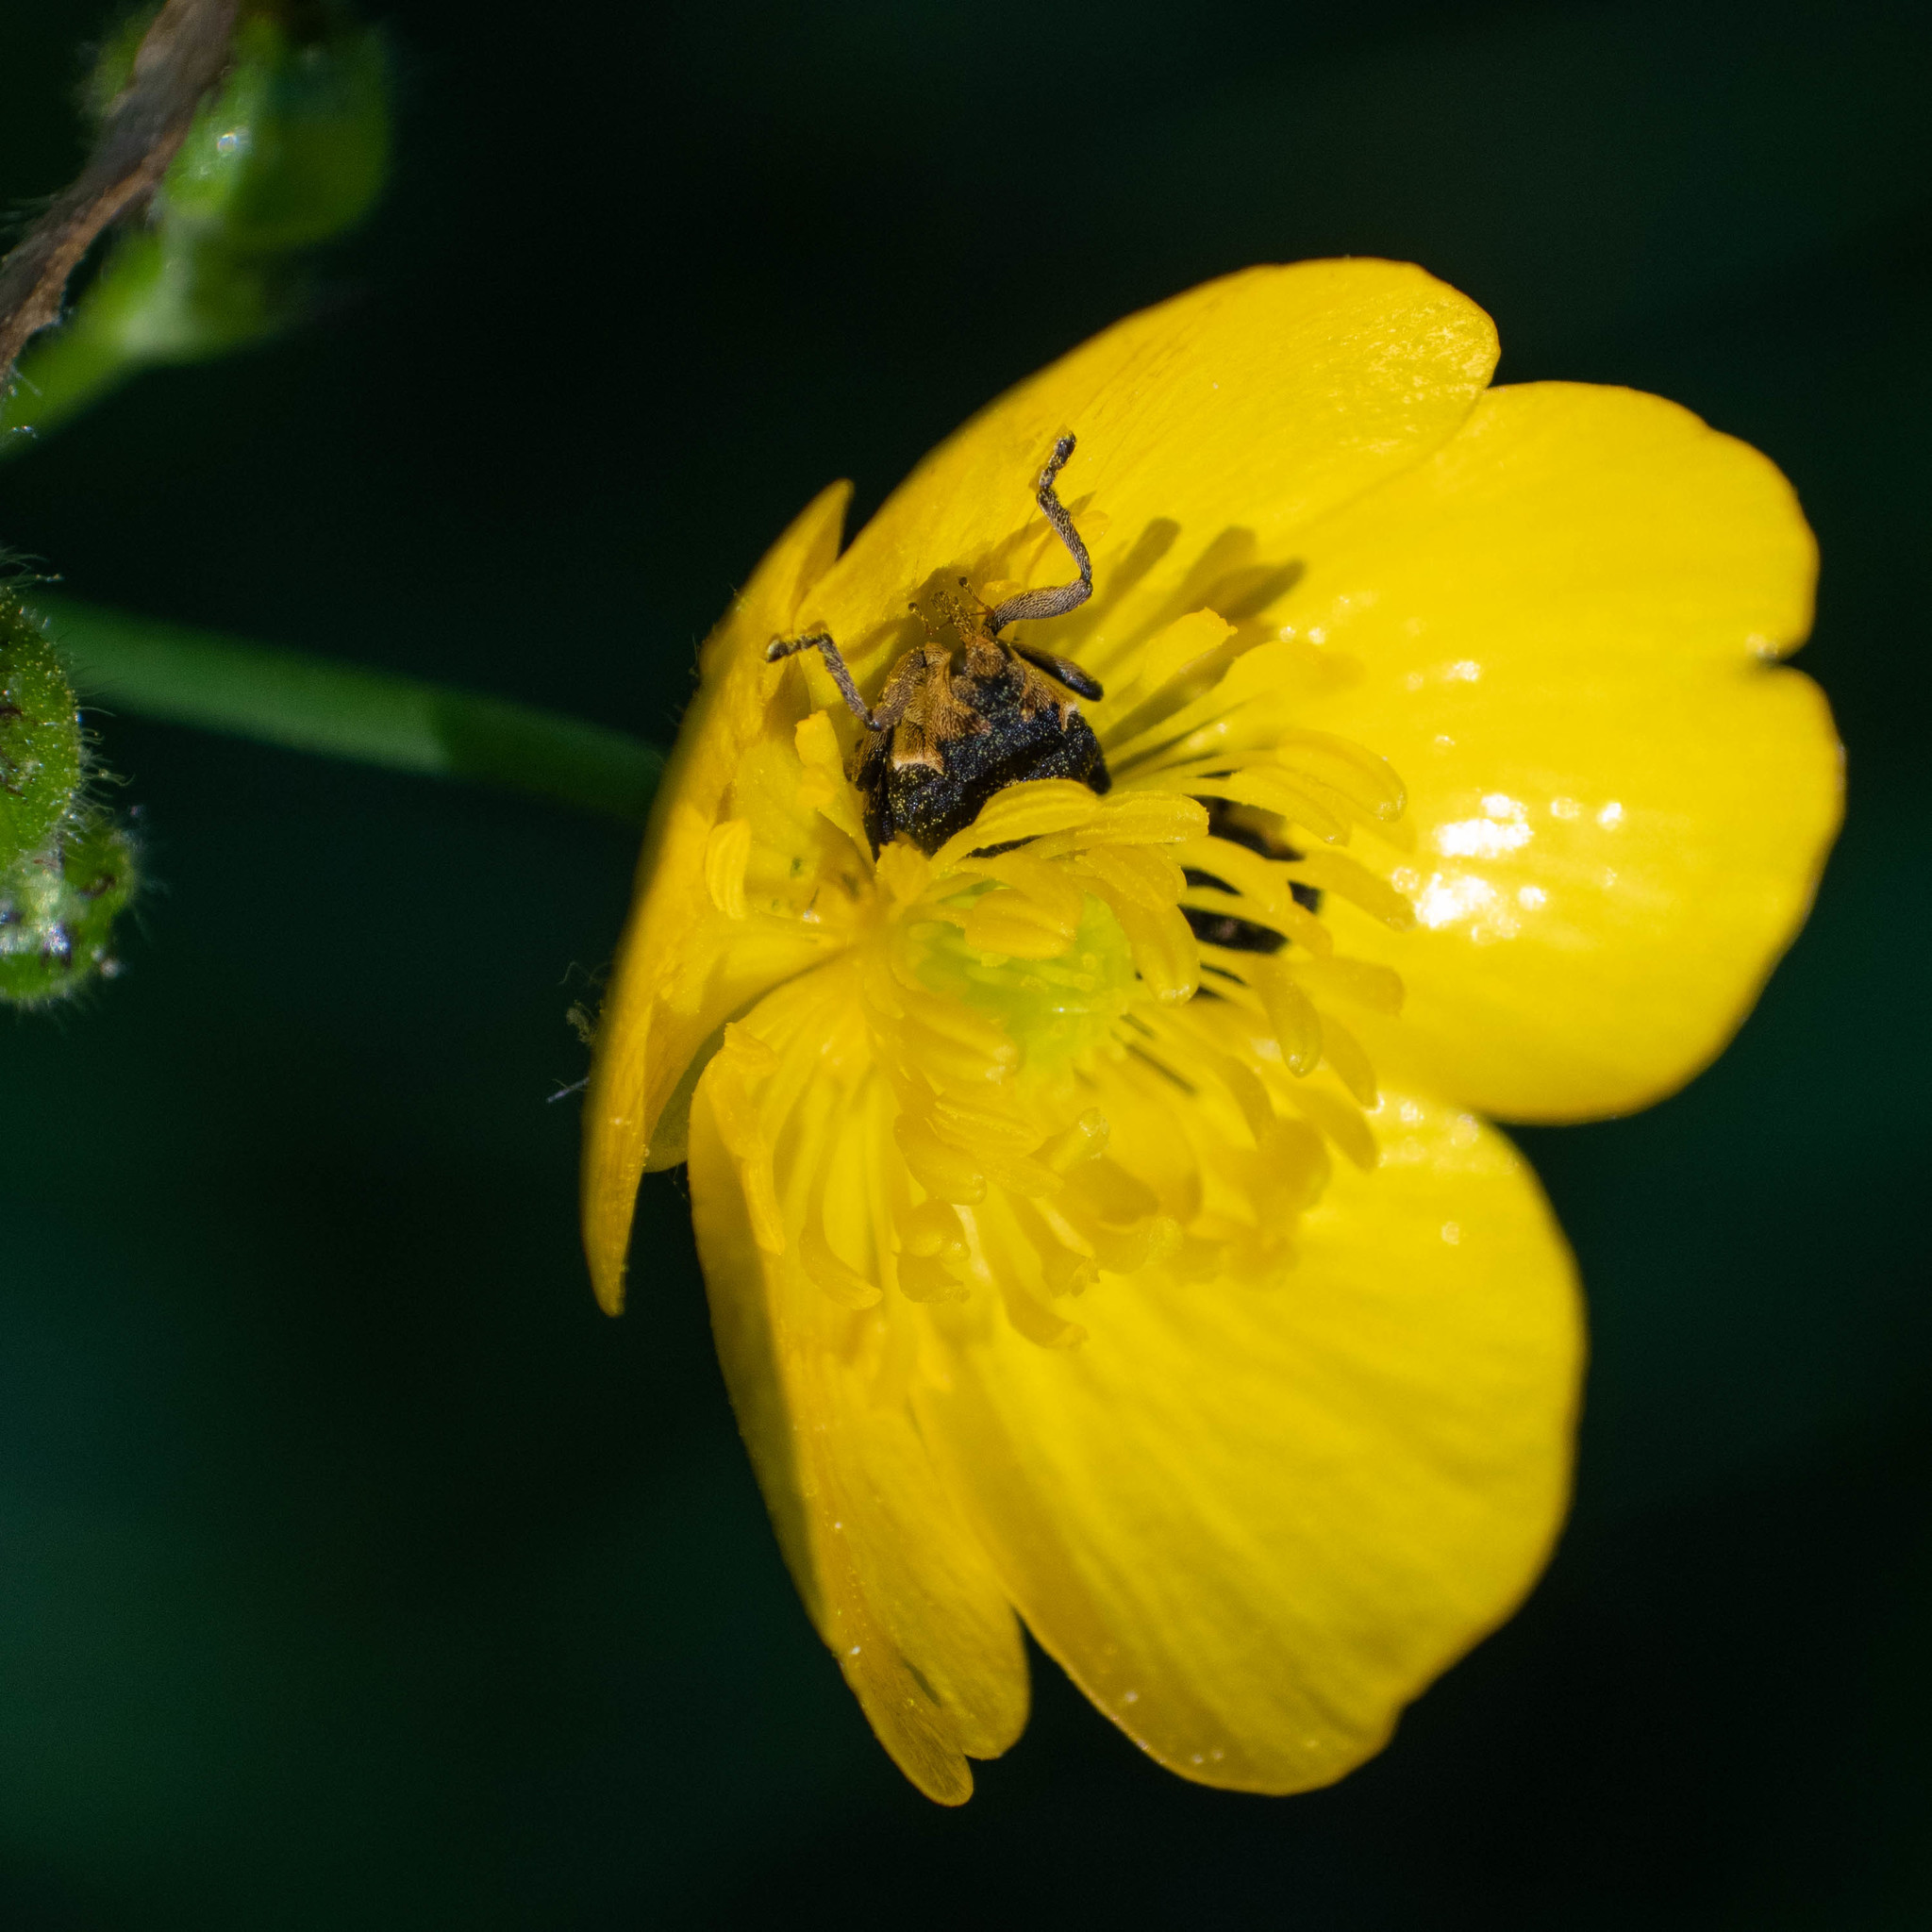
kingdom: Animalia
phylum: Arthropoda
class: Insecta
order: Coleoptera
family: Curculionidae
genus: Mononychus
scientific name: Mononychus punctumalbum
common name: Iris weevil
